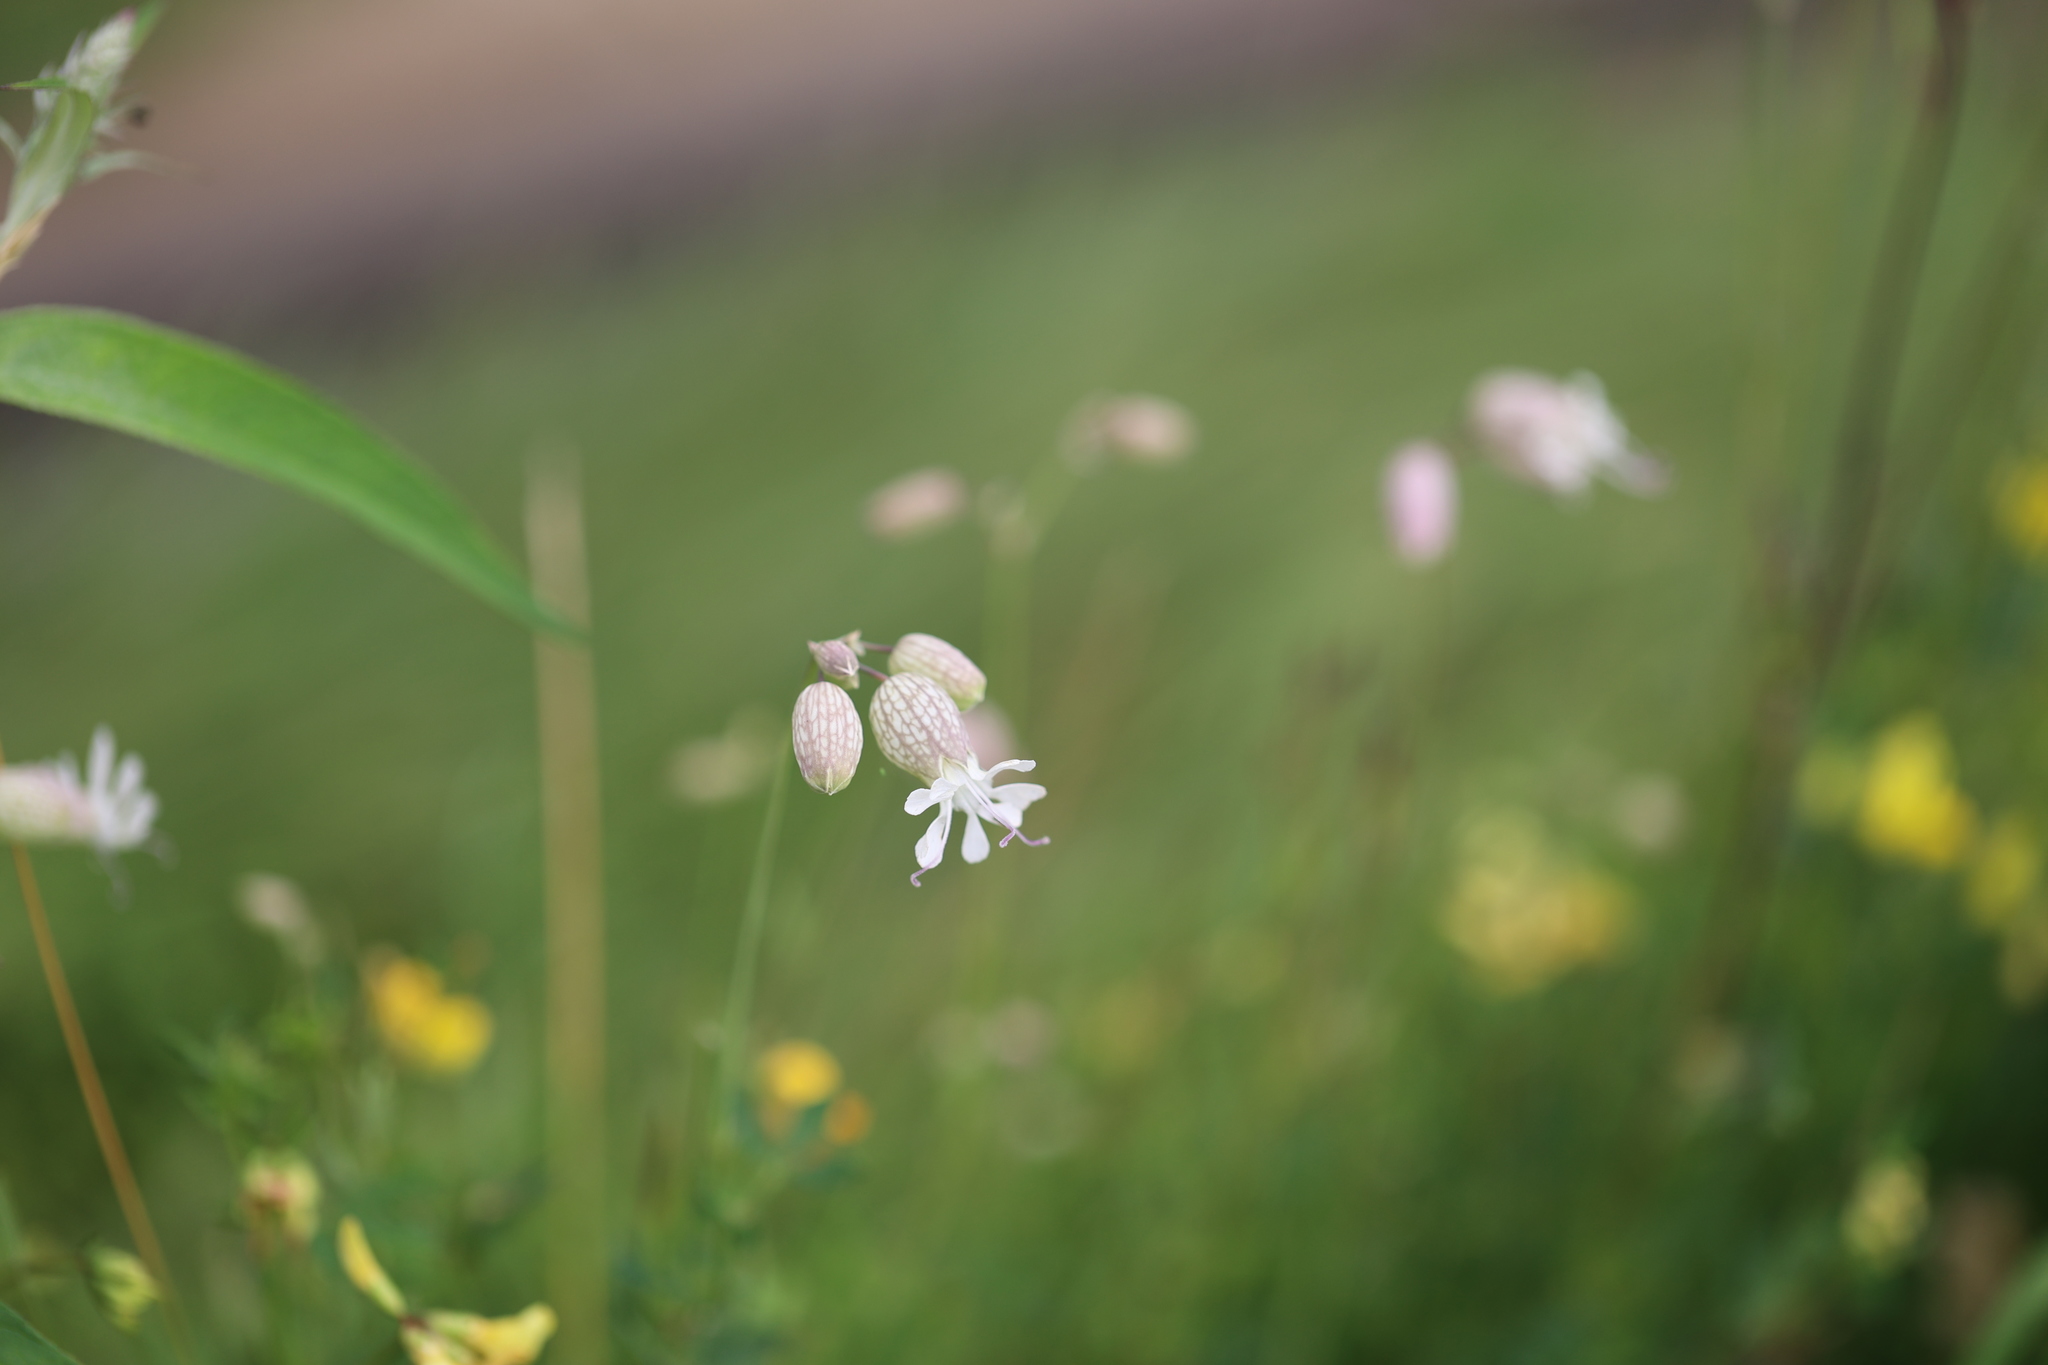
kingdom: Plantae
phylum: Tracheophyta
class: Magnoliopsida
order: Caryophyllales
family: Caryophyllaceae
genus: Silene
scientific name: Silene vulgaris
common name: Bladder campion
